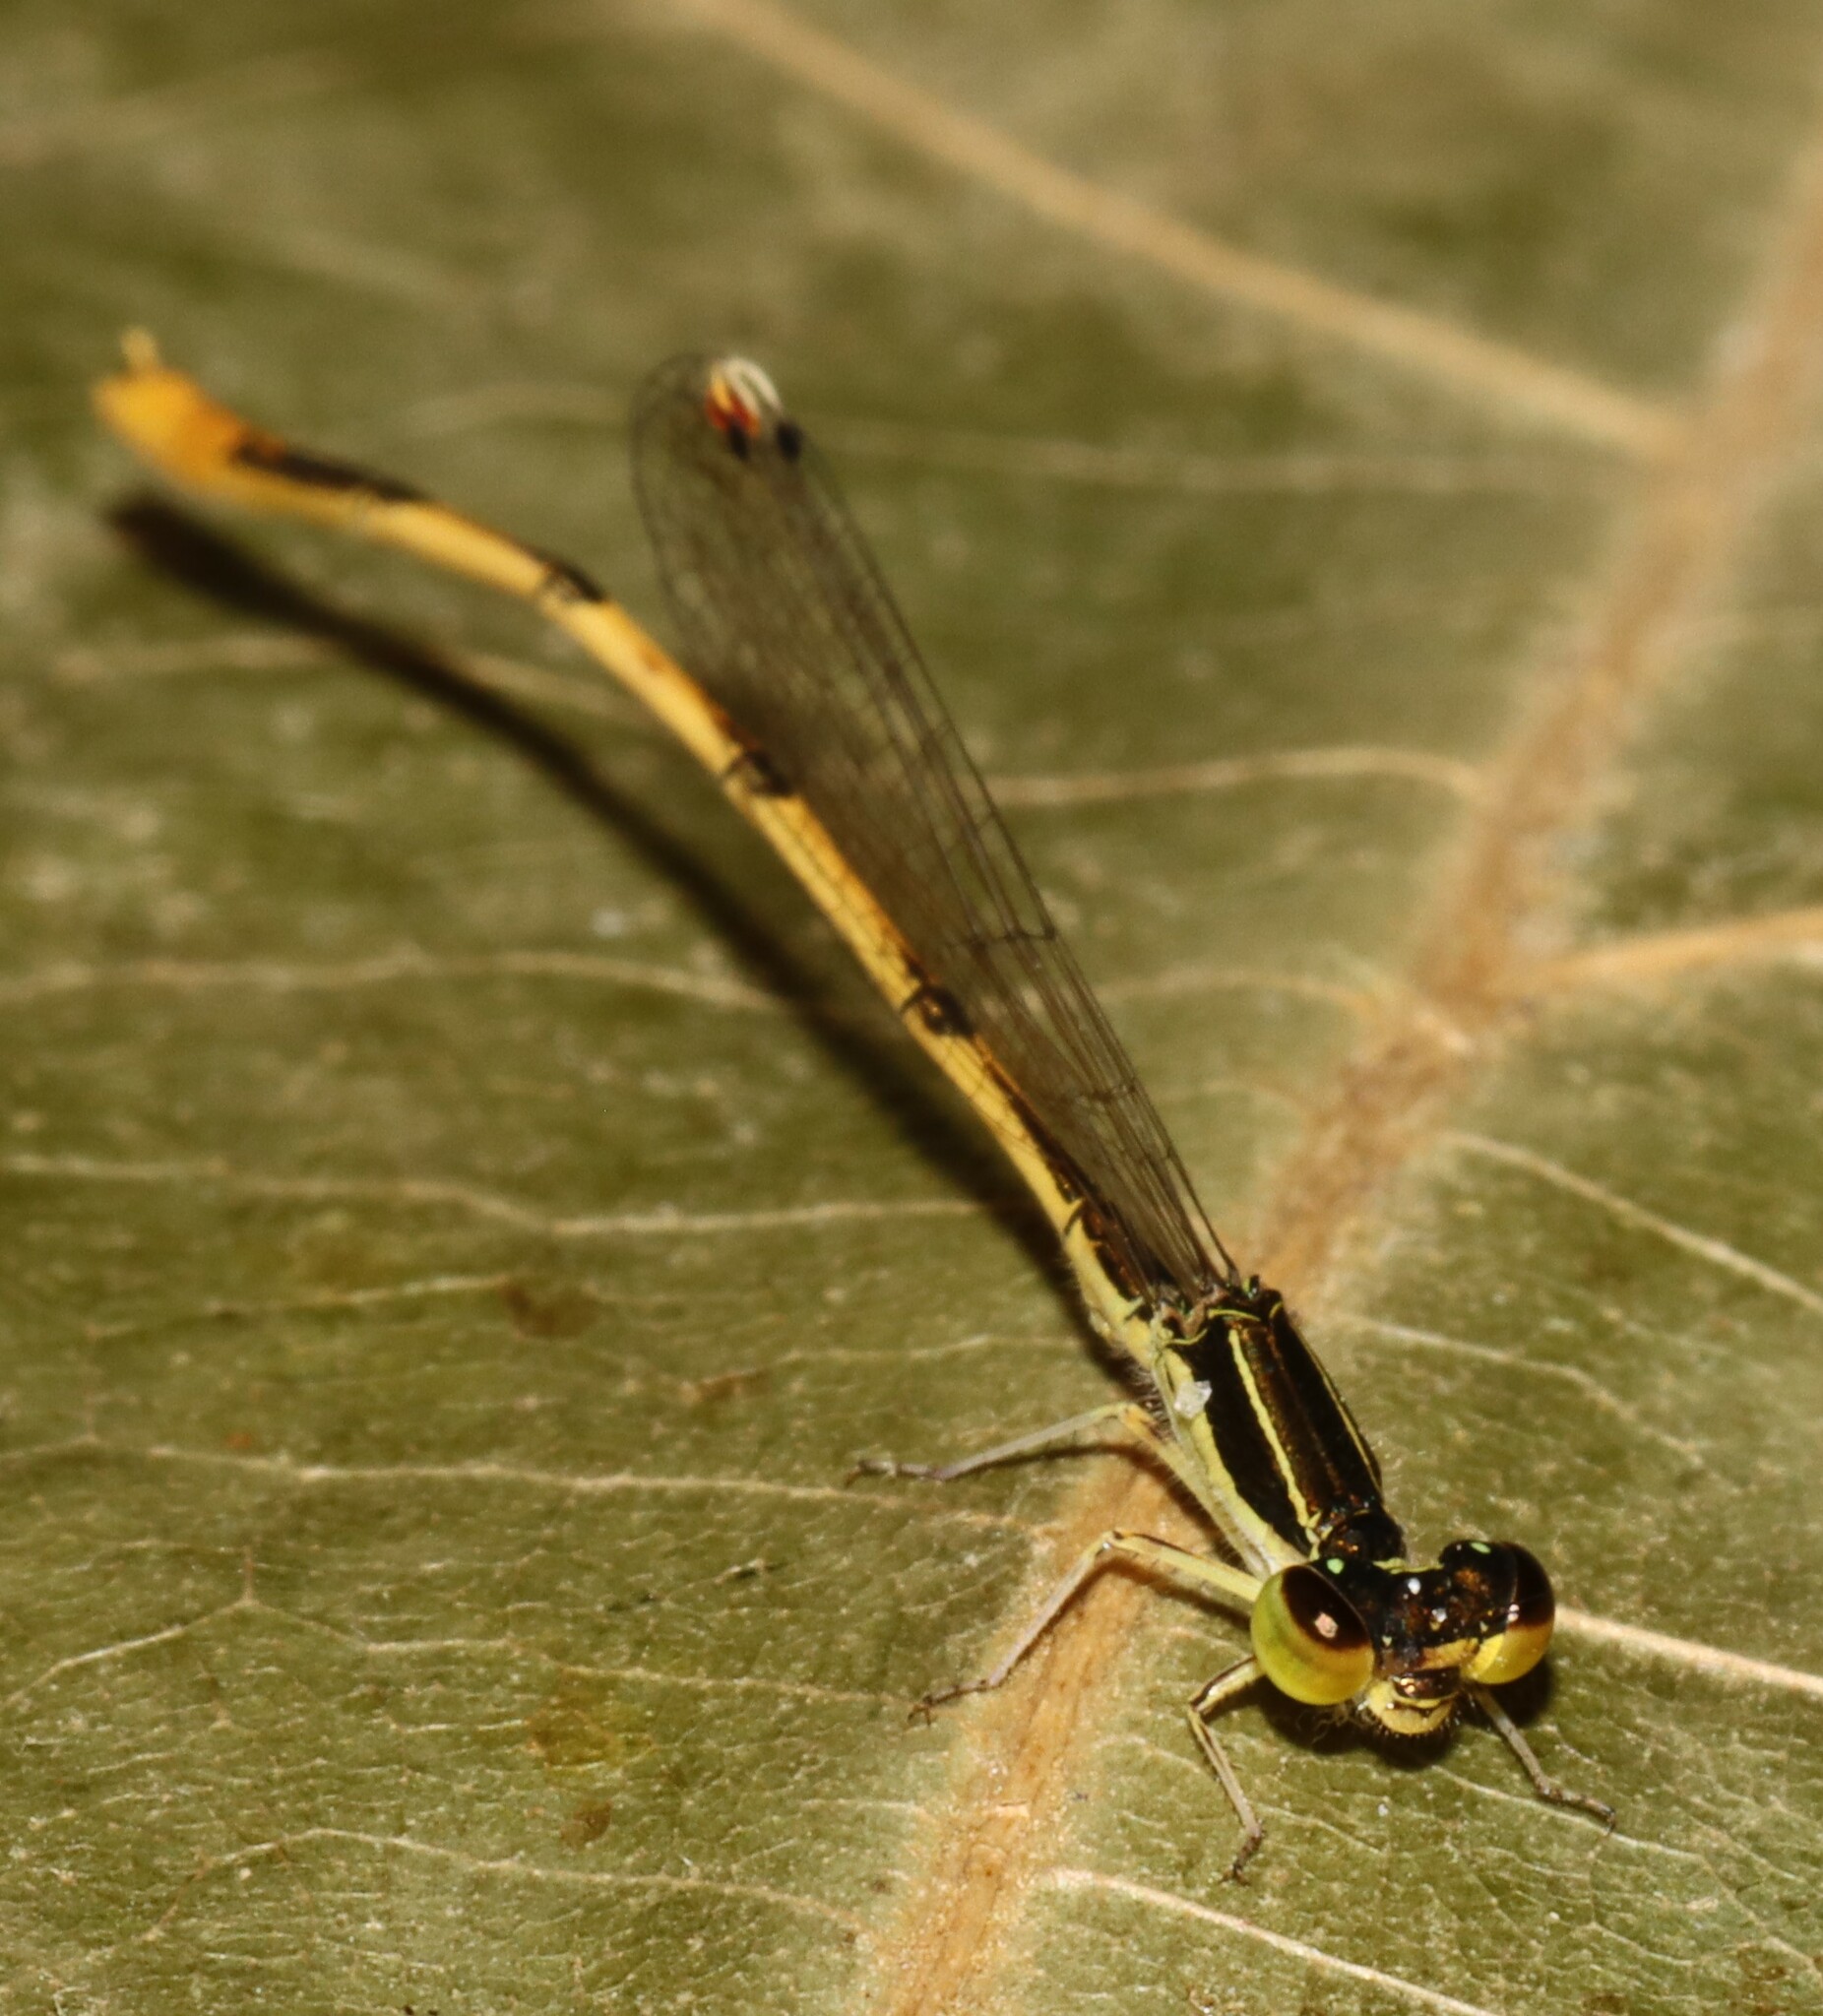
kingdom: Animalia
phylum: Arthropoda
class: Insecta
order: Odonata
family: Coenagrionidae
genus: Ischnura
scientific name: Ischnura hastata
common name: Citrine forktail
